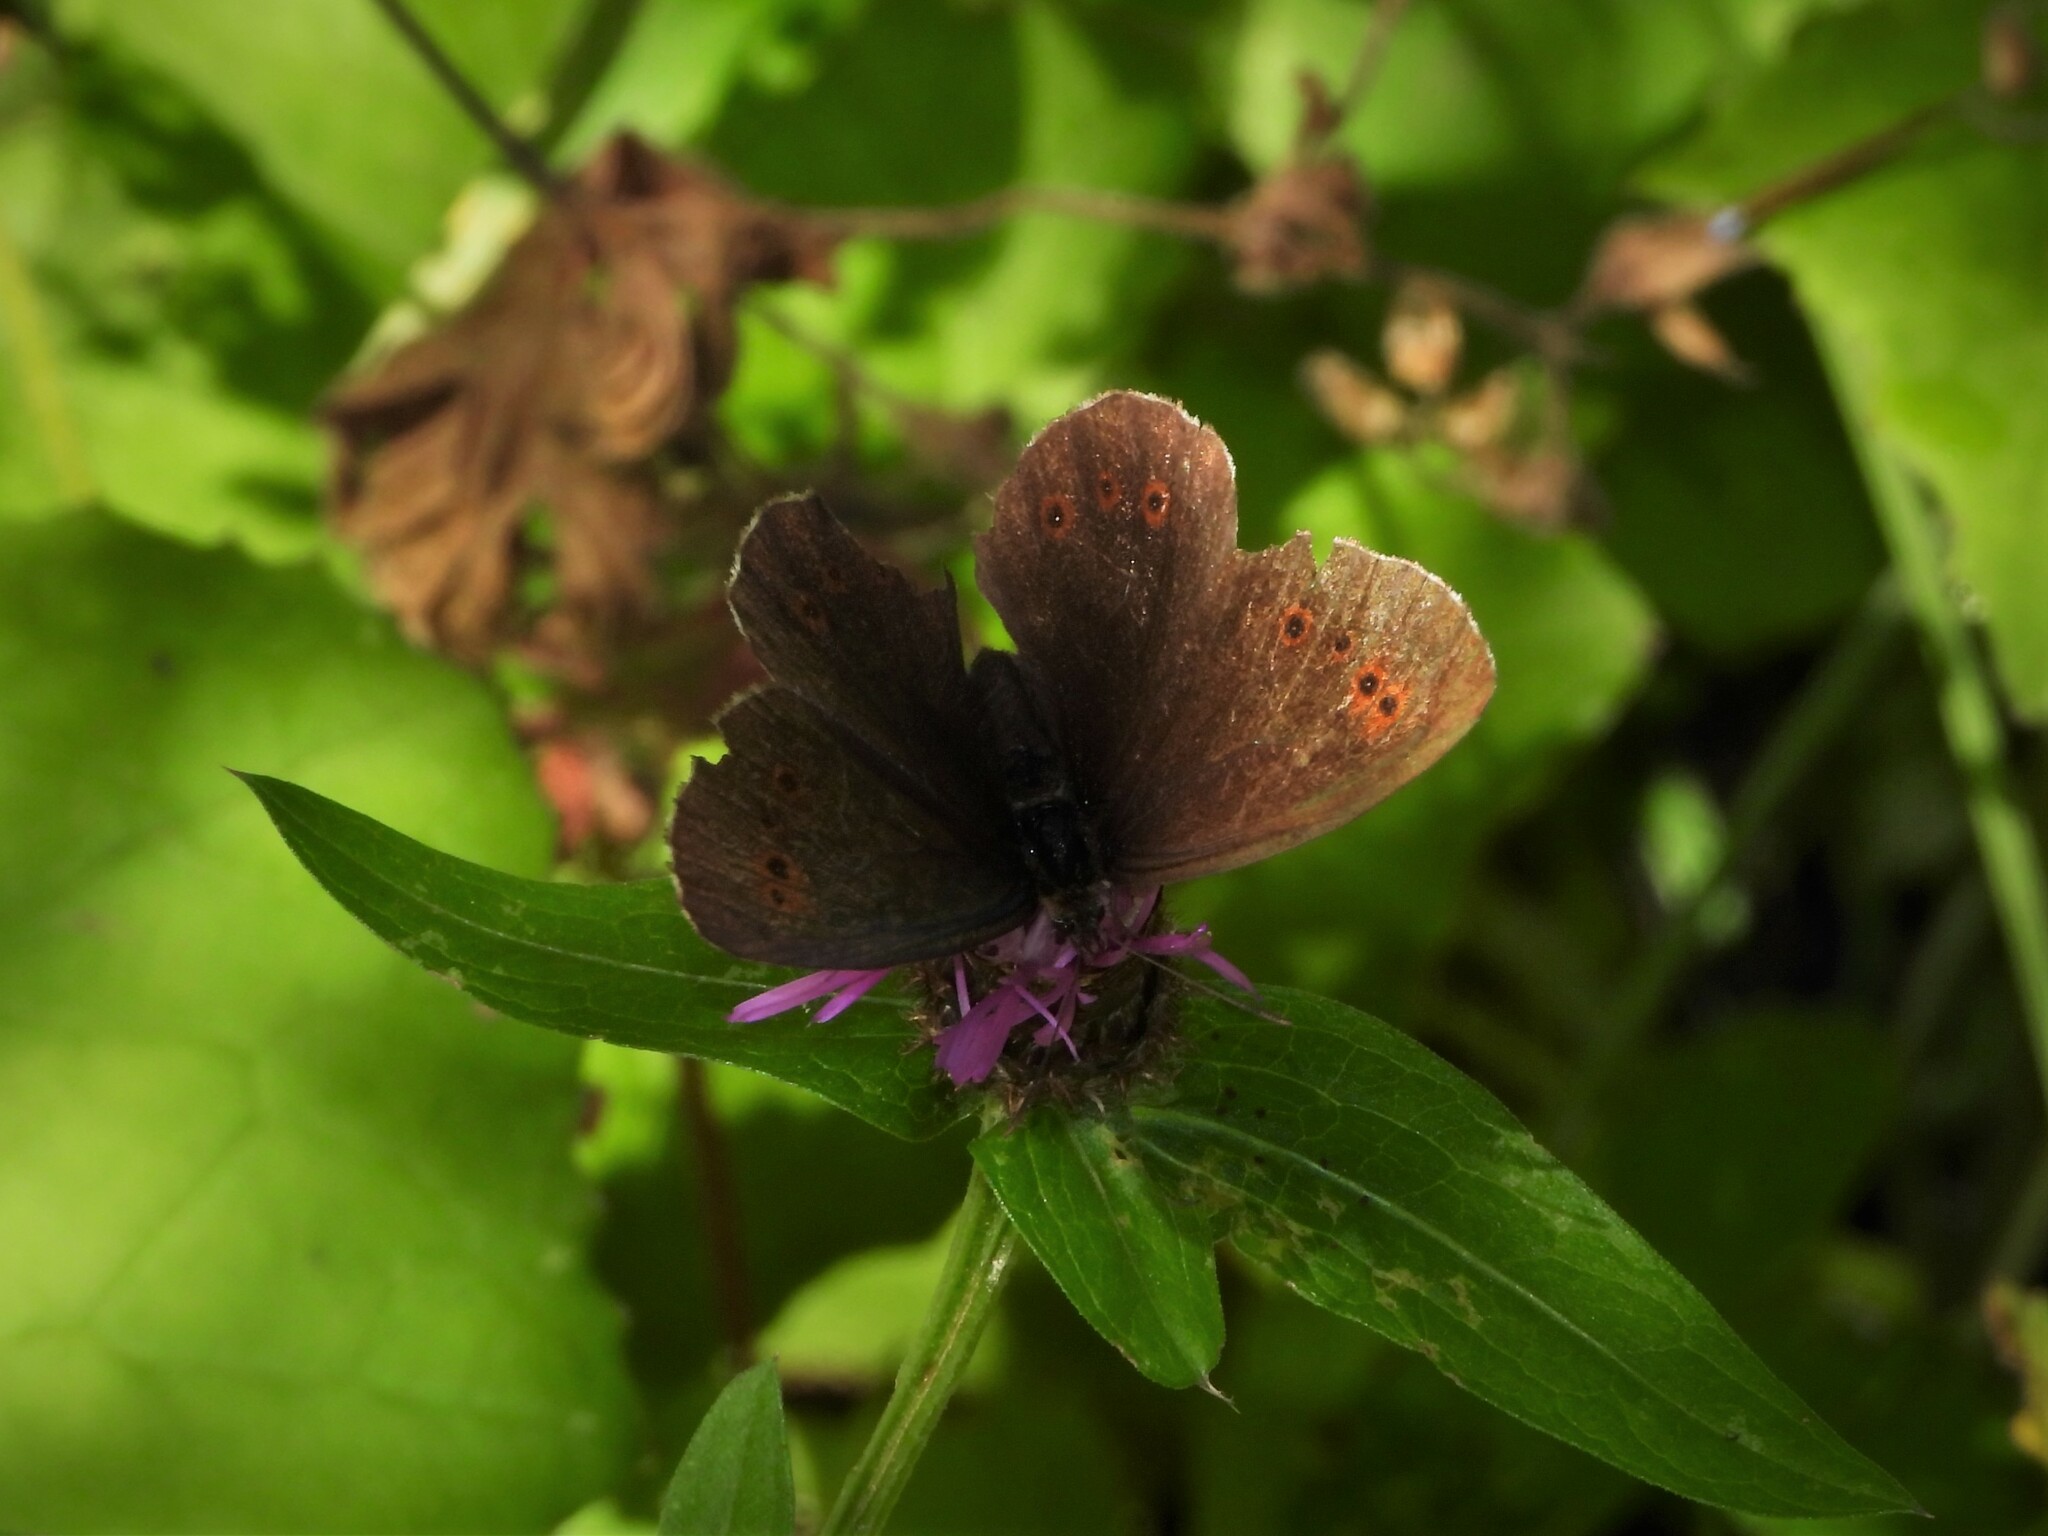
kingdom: Animalia
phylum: Arthropoda
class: Insecta
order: Lepidoptera
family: Nymphalidae
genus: Erebia
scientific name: Erebia euryale
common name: Large ringlet
